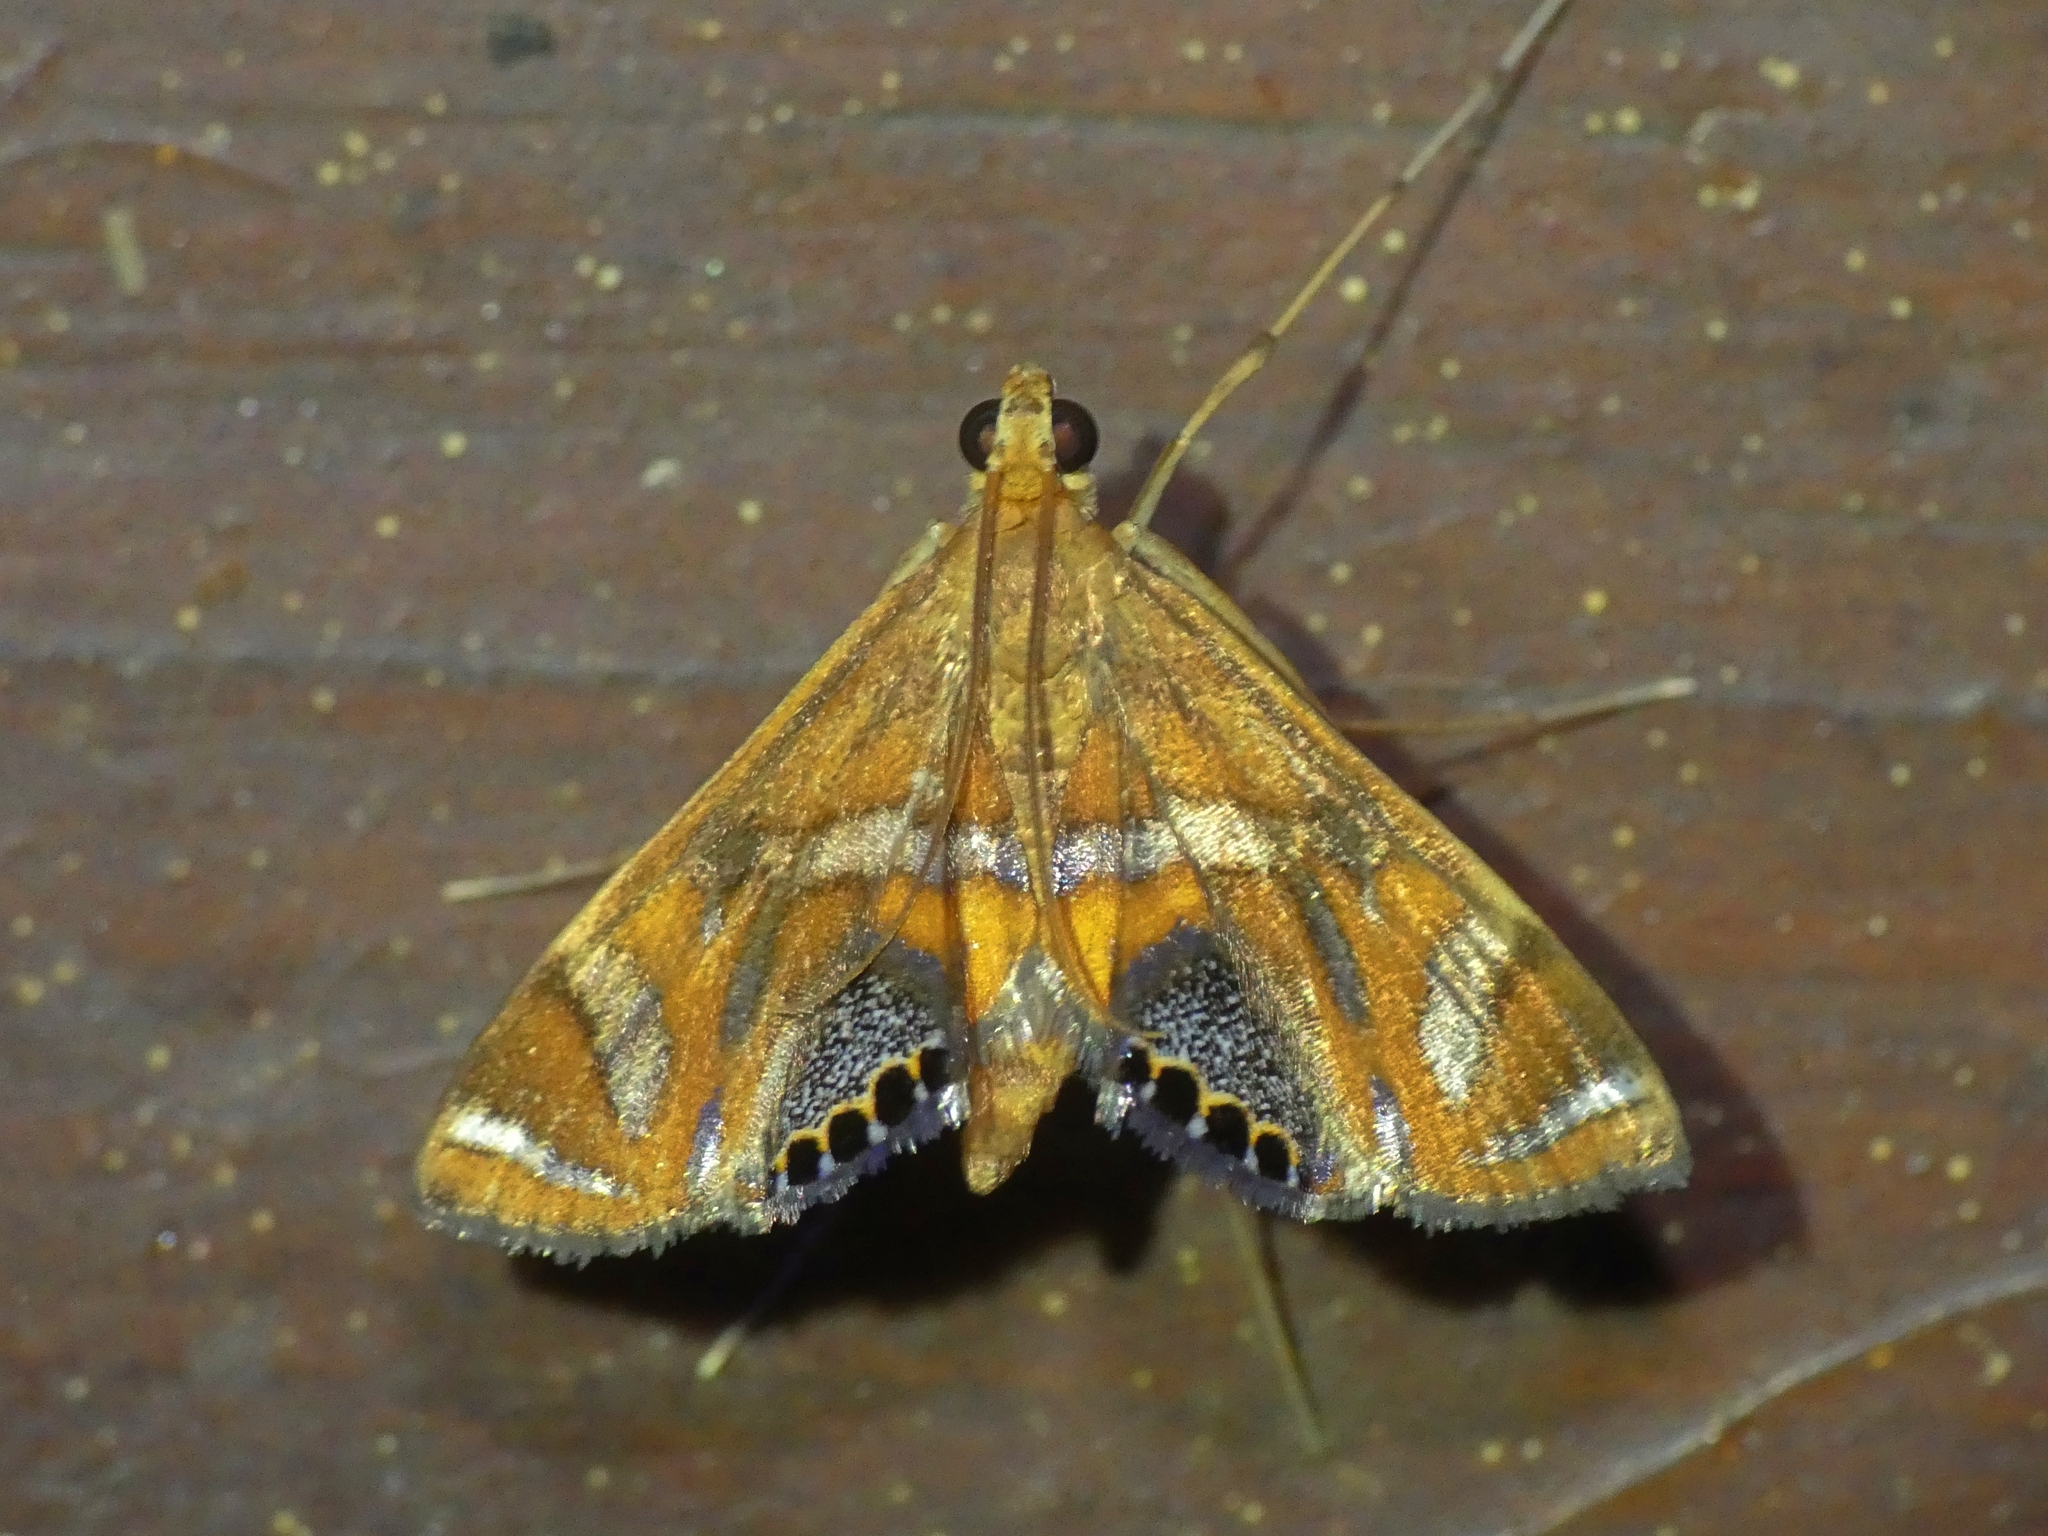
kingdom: Animalia
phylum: Arthropoda
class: Insecta
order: Lepidoptera
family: Crambidae
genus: Margarosticha
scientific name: Margarosticha euprepialis
